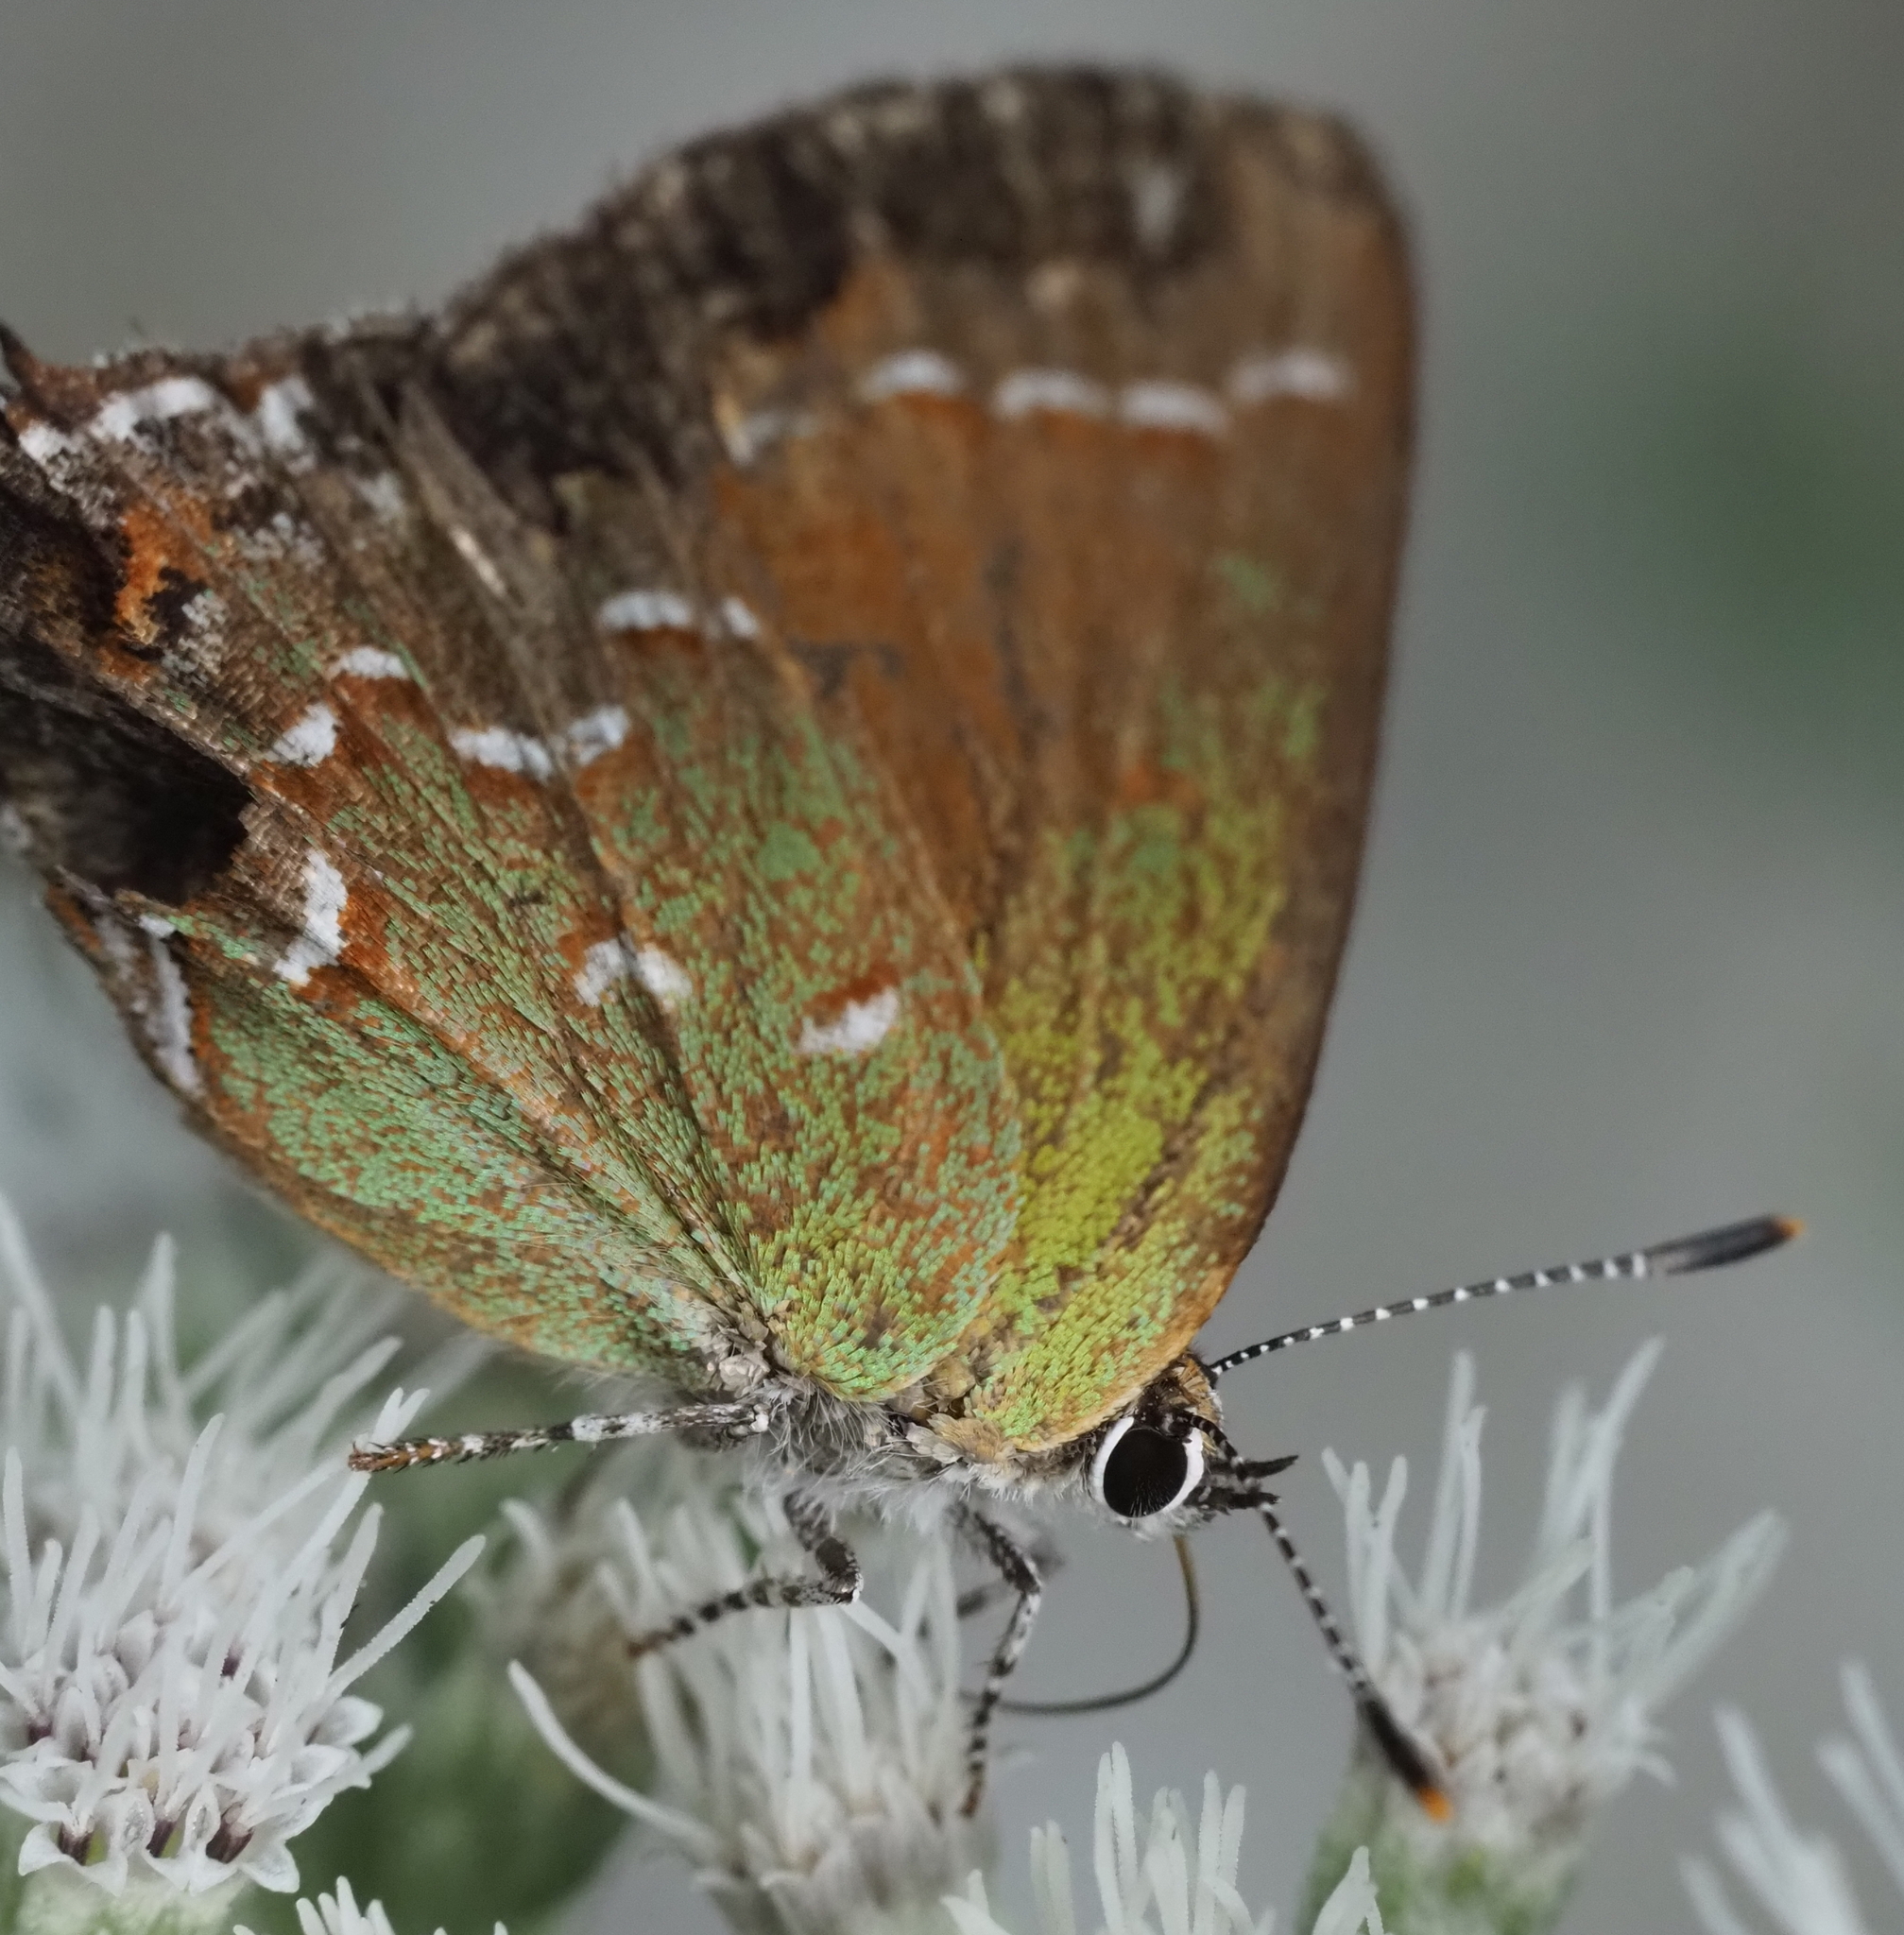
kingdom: Animalia
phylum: Arthropoda
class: Insecta
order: Lepidoptera
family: Lycaenidae
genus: Mitoura
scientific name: Mitoura gryneus
